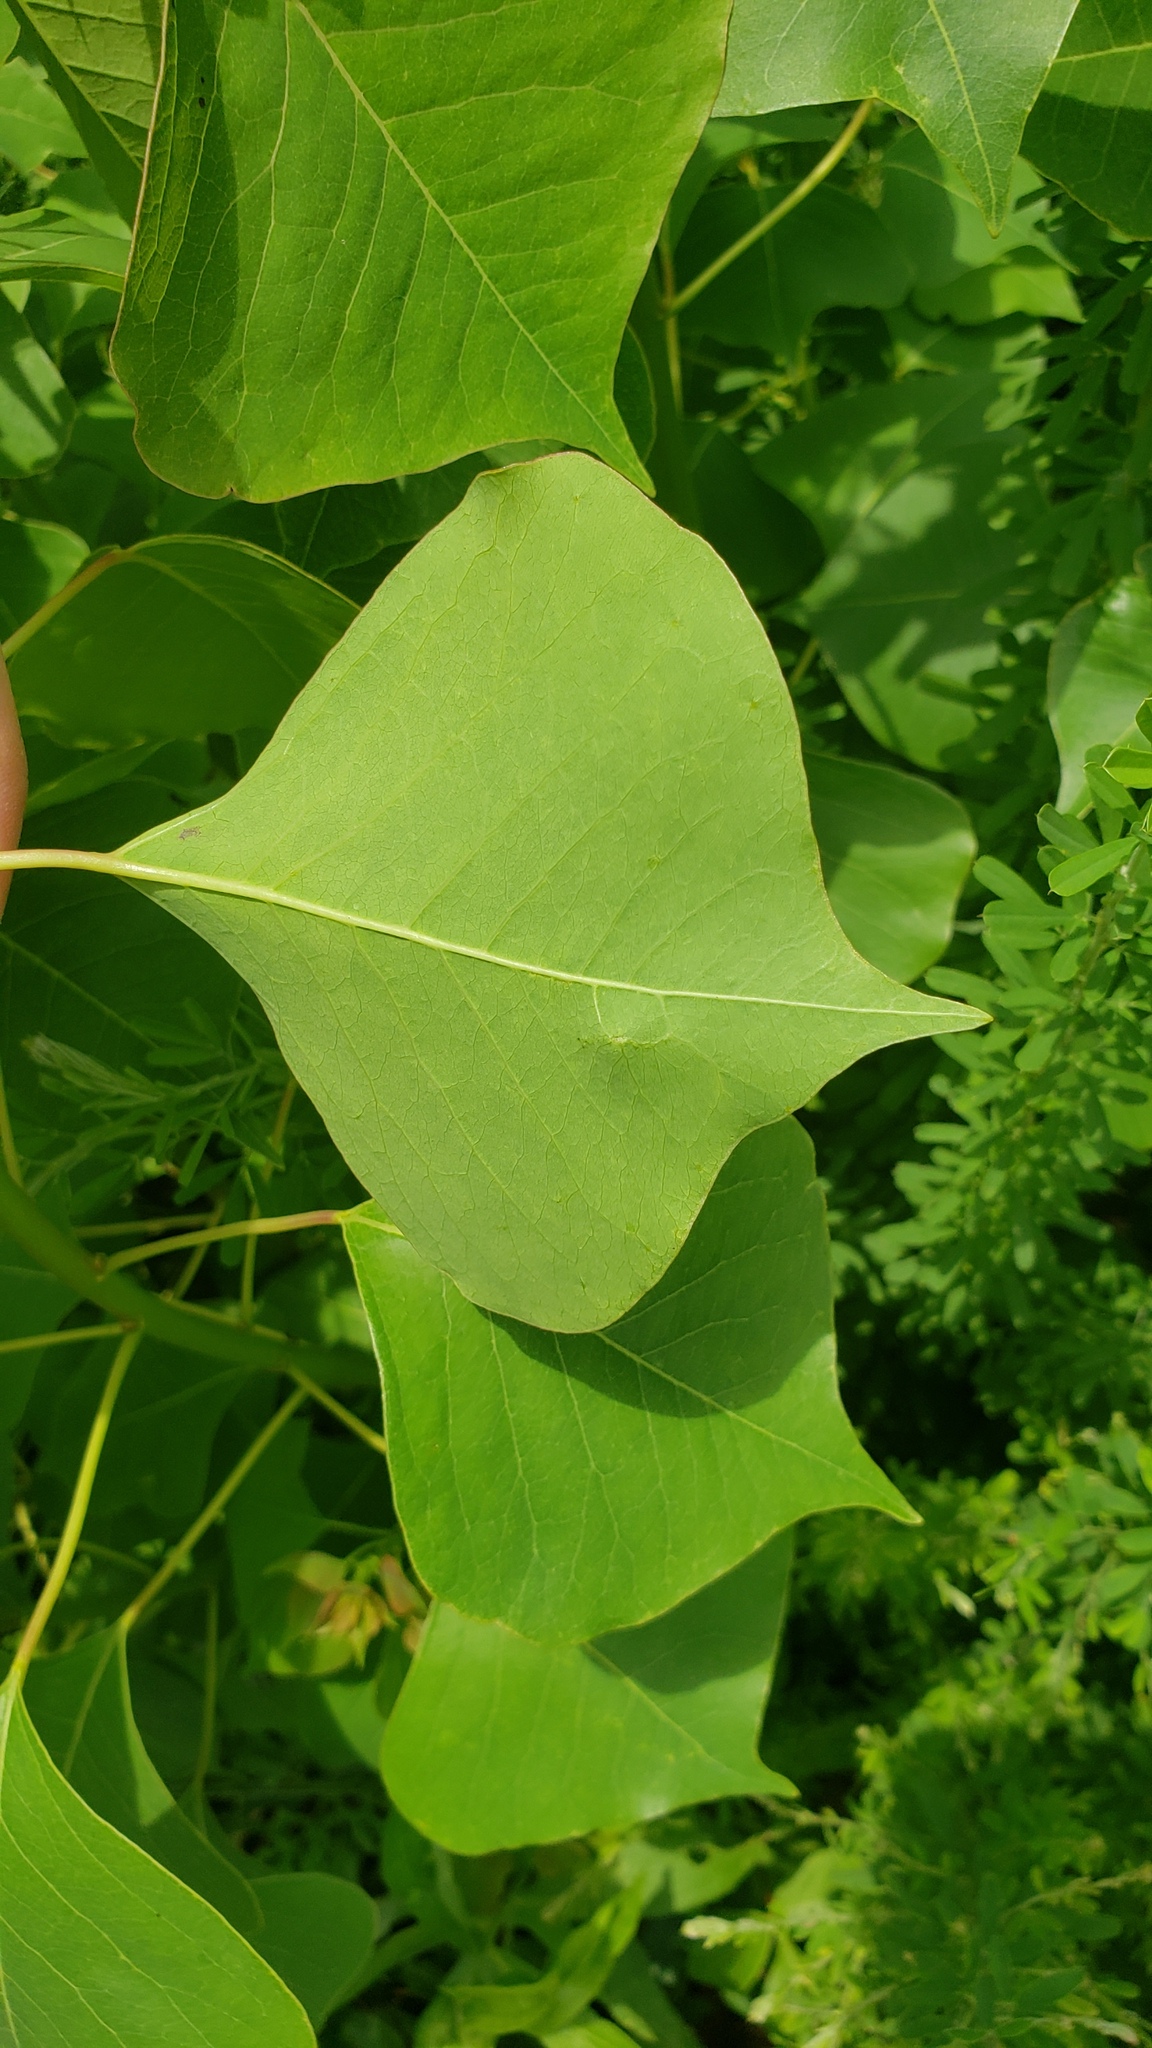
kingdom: Plantae
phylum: Tracheophyta
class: Magnoliopsida
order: Malpighiales
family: Euphorbiaceae
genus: Triadica
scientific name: Triadica sebifera
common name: Chinese tallow
